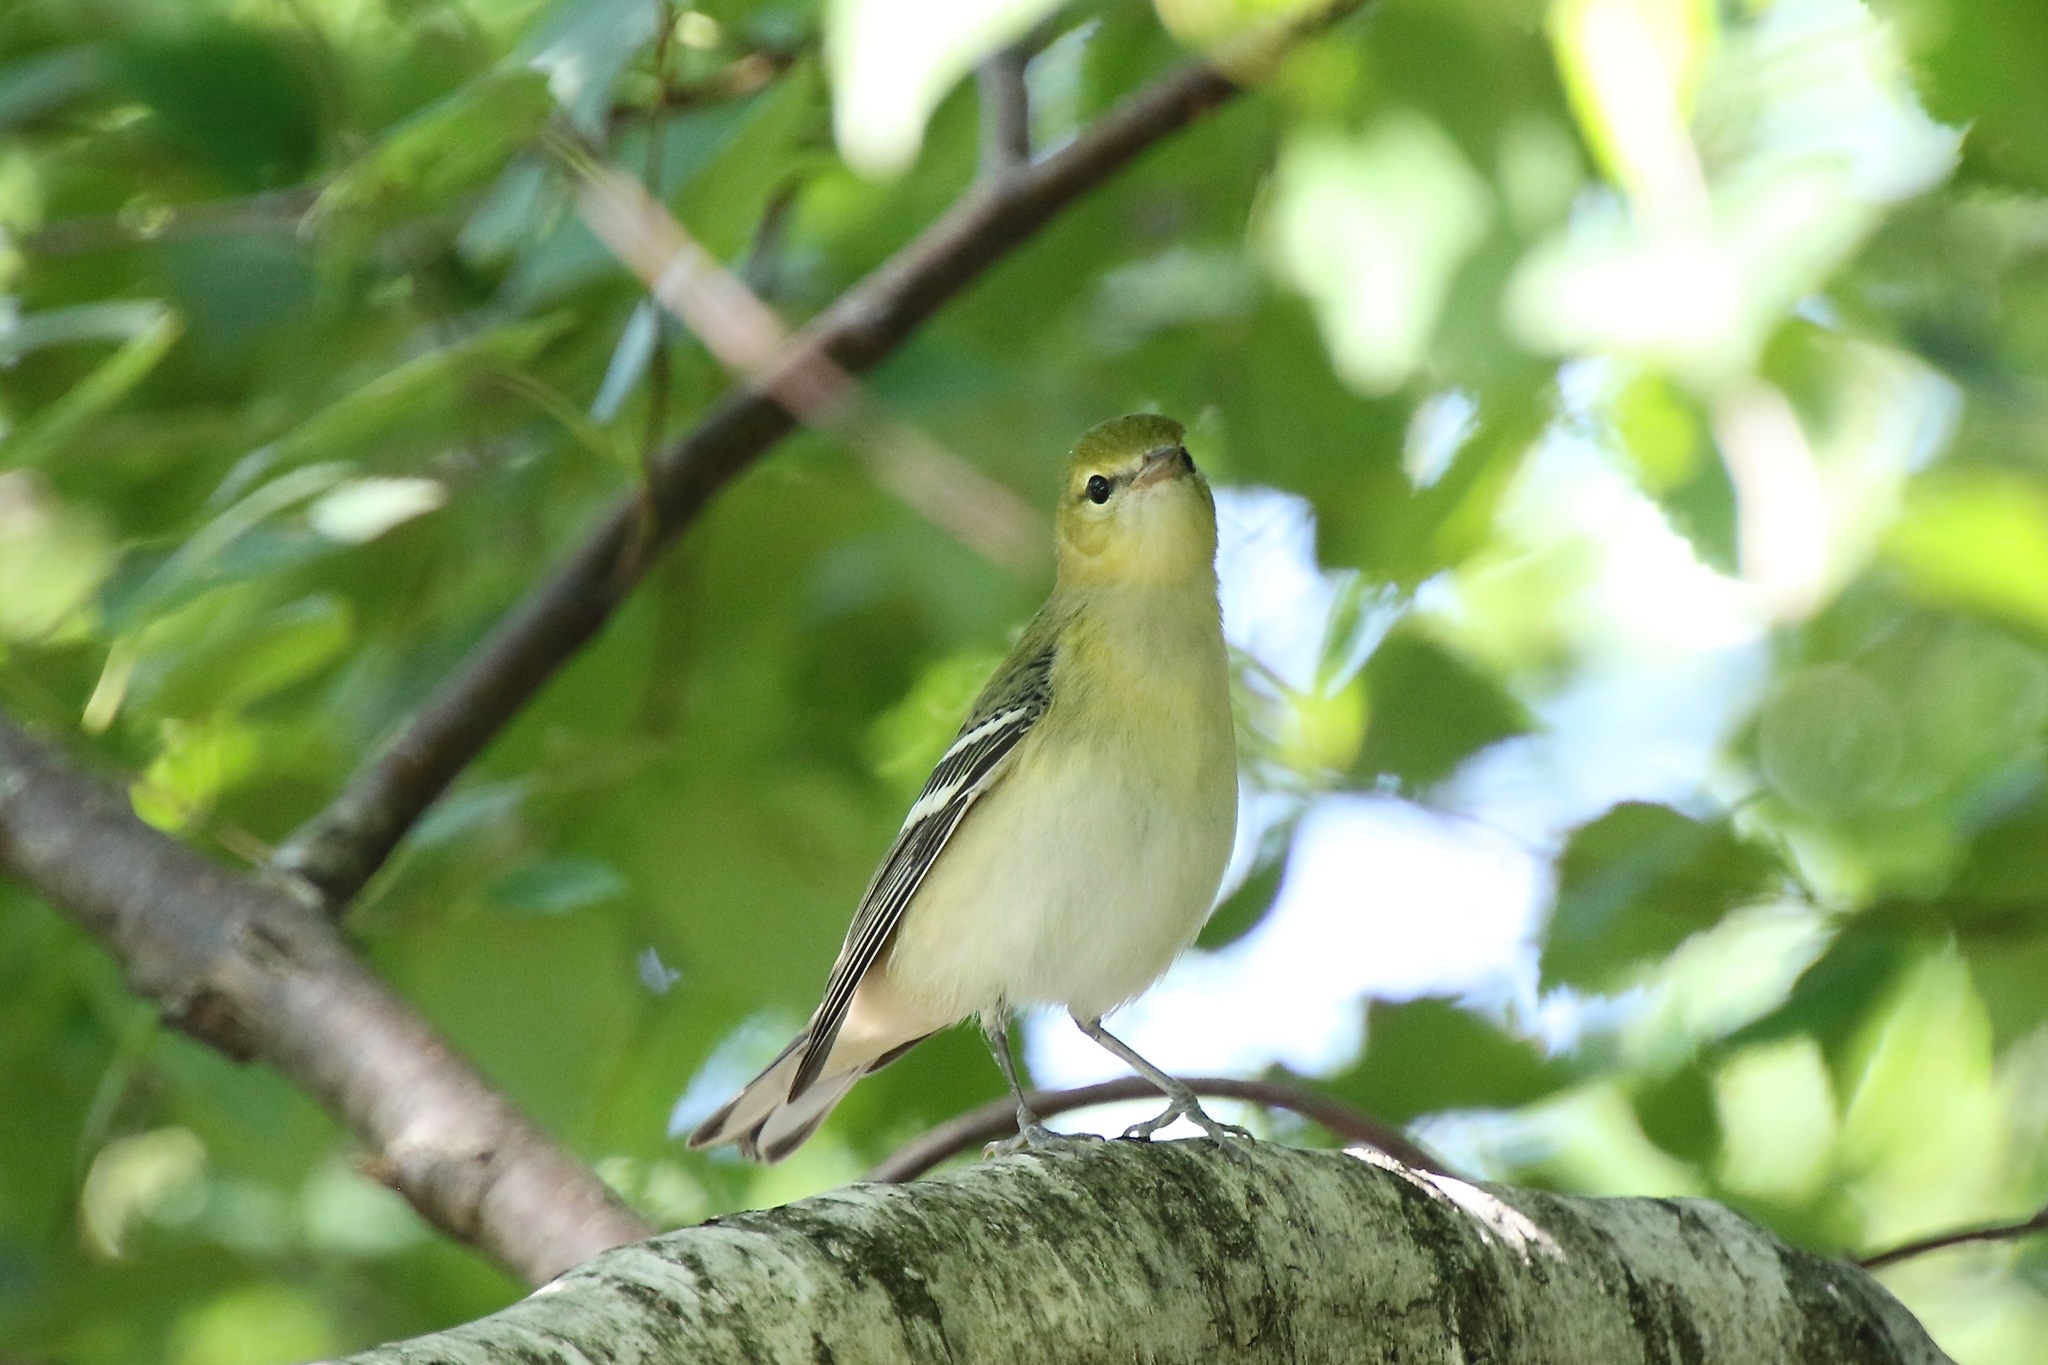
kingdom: Animalia
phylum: Chordata
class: Aves
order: Passeriformes
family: Parulidae
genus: Setophaga
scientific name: Setophaga castanea
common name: Bay-breasted warbler
